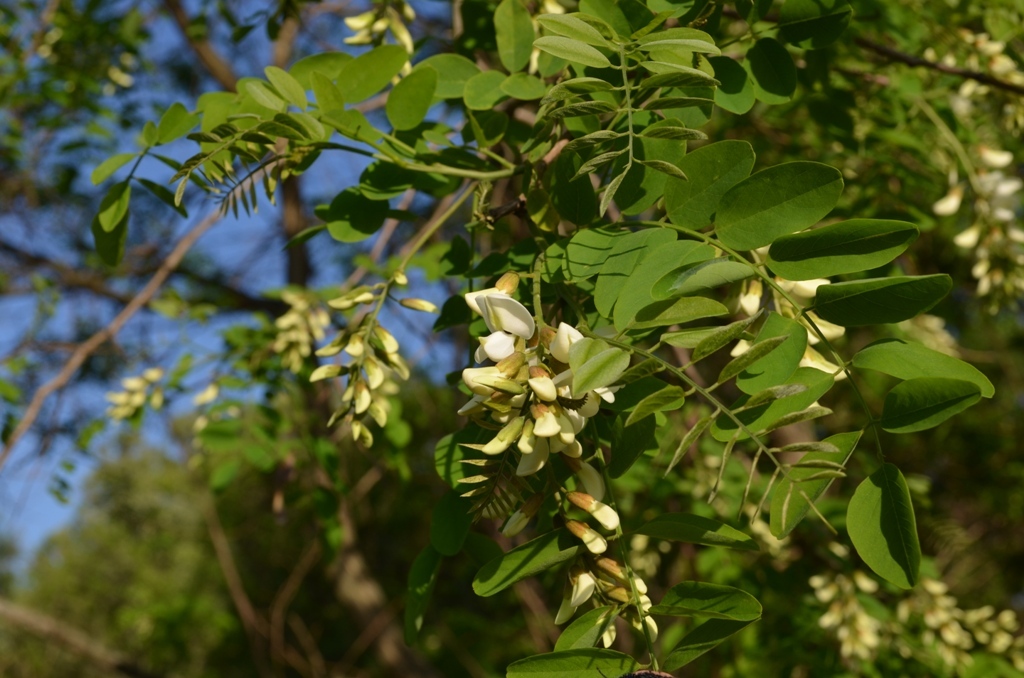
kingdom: Plantae
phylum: Tracheophyta
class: Magnoliopsida
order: Fabales
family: Fabaceae
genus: Robinia
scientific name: Robinia pseudoacacia
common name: Black locust
